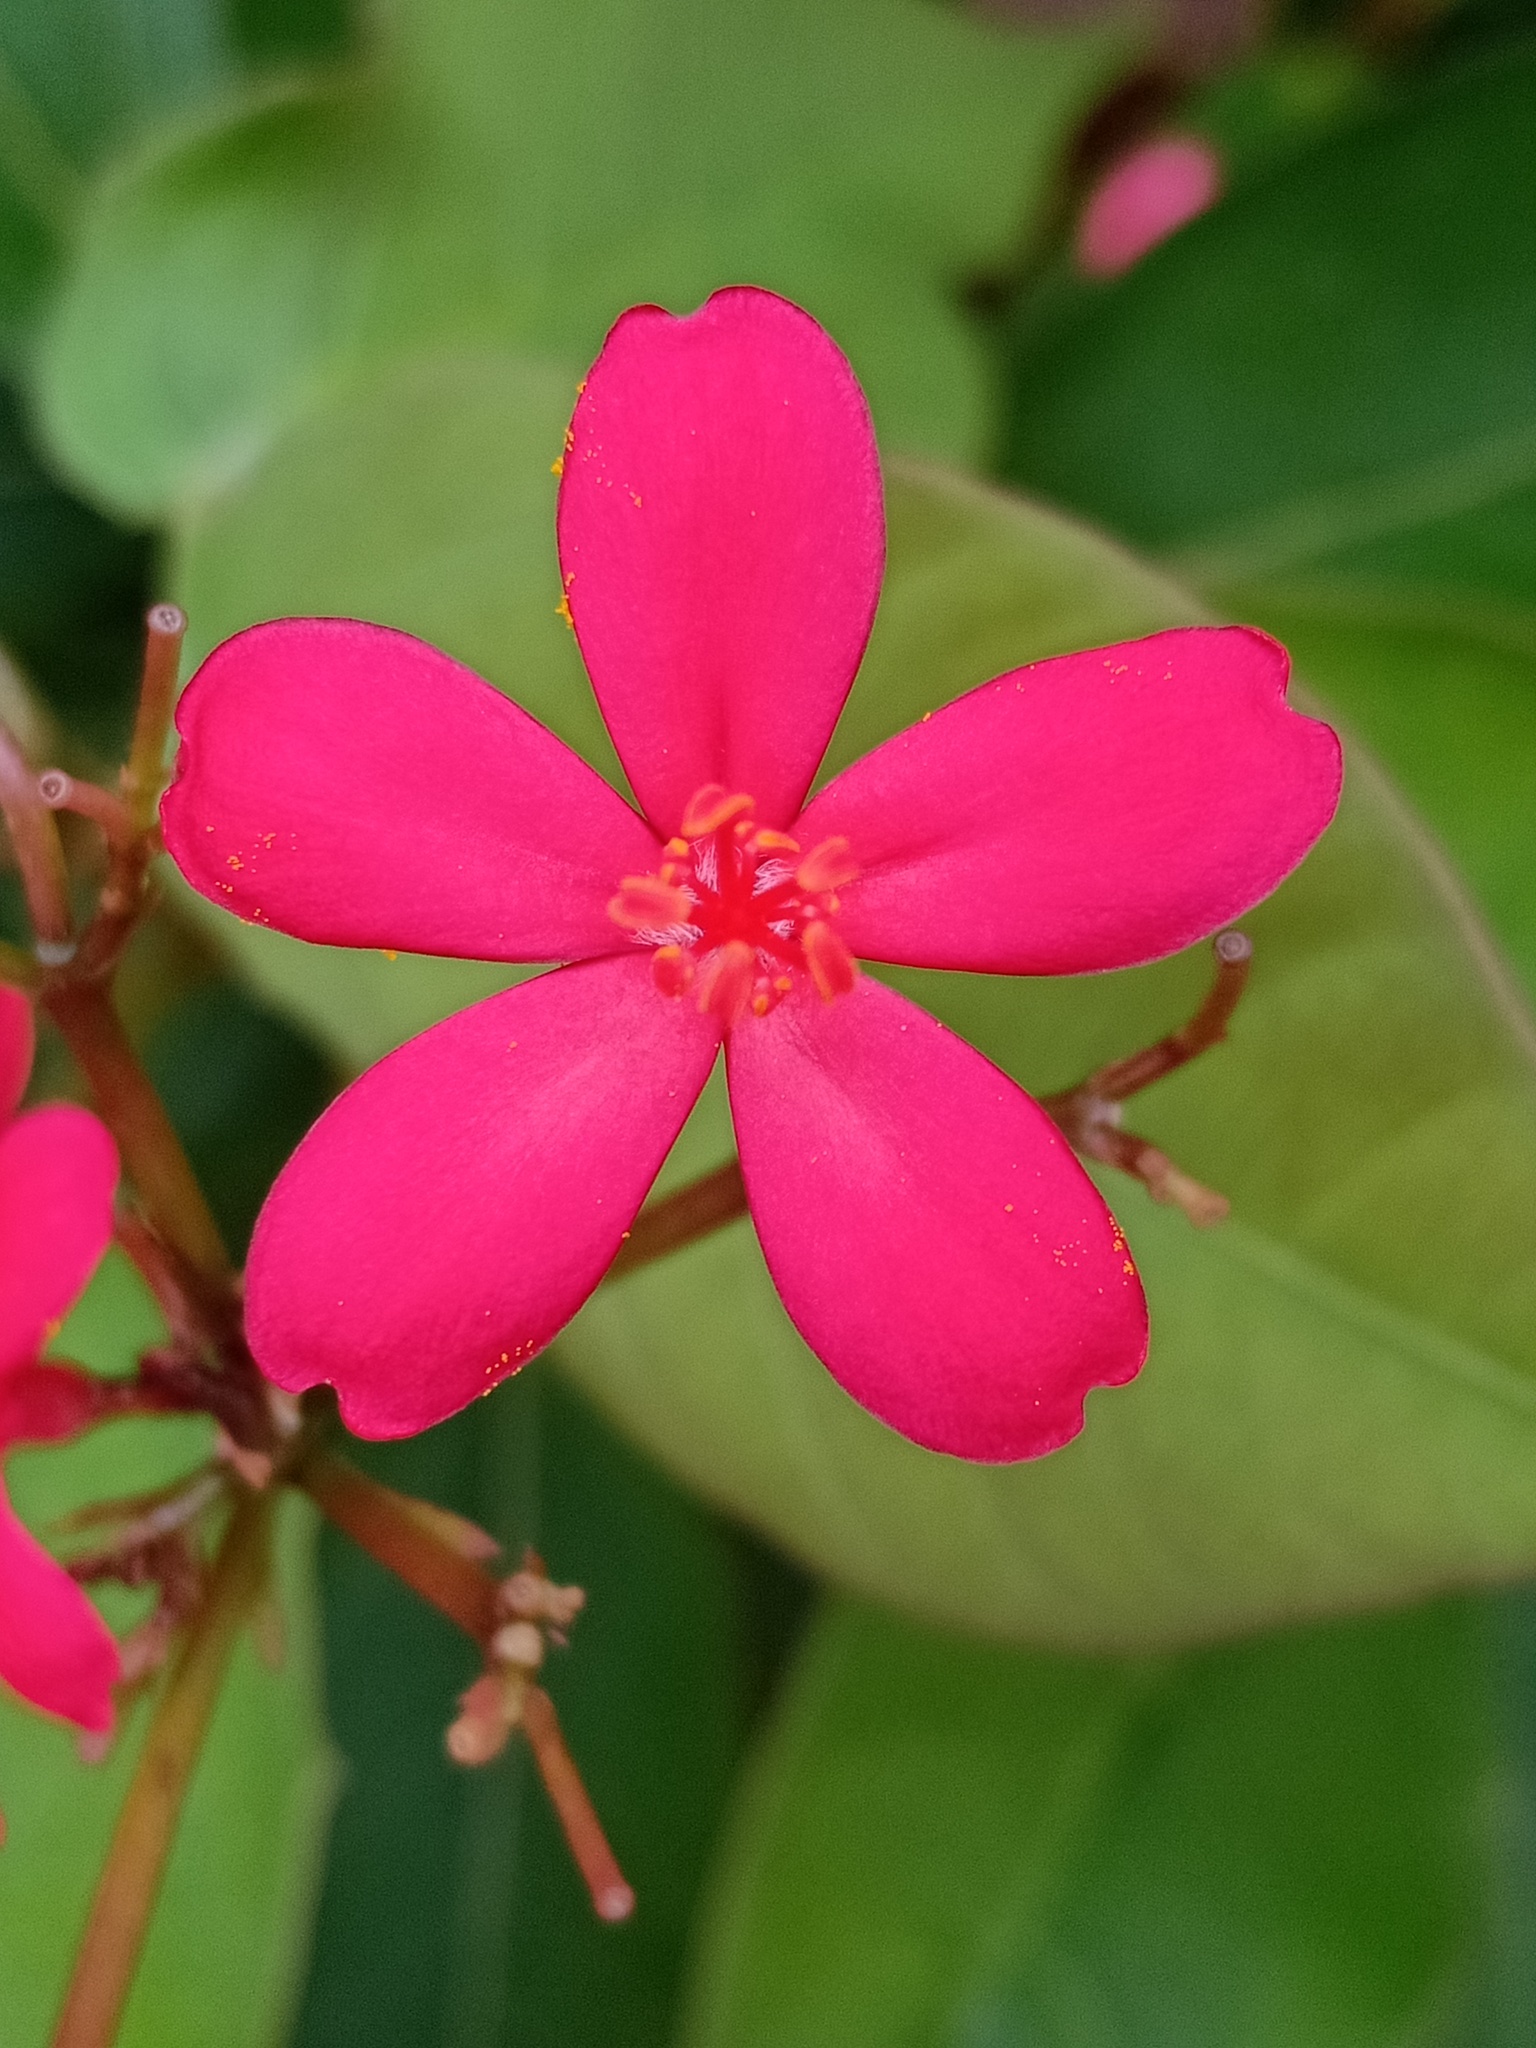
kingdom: Plantae
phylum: Tracheophyta
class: Magnoliopsida
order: Malpighiales
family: Euphorbiaceae
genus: Jatropha
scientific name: Jatropha integerrima
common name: Peregrina
